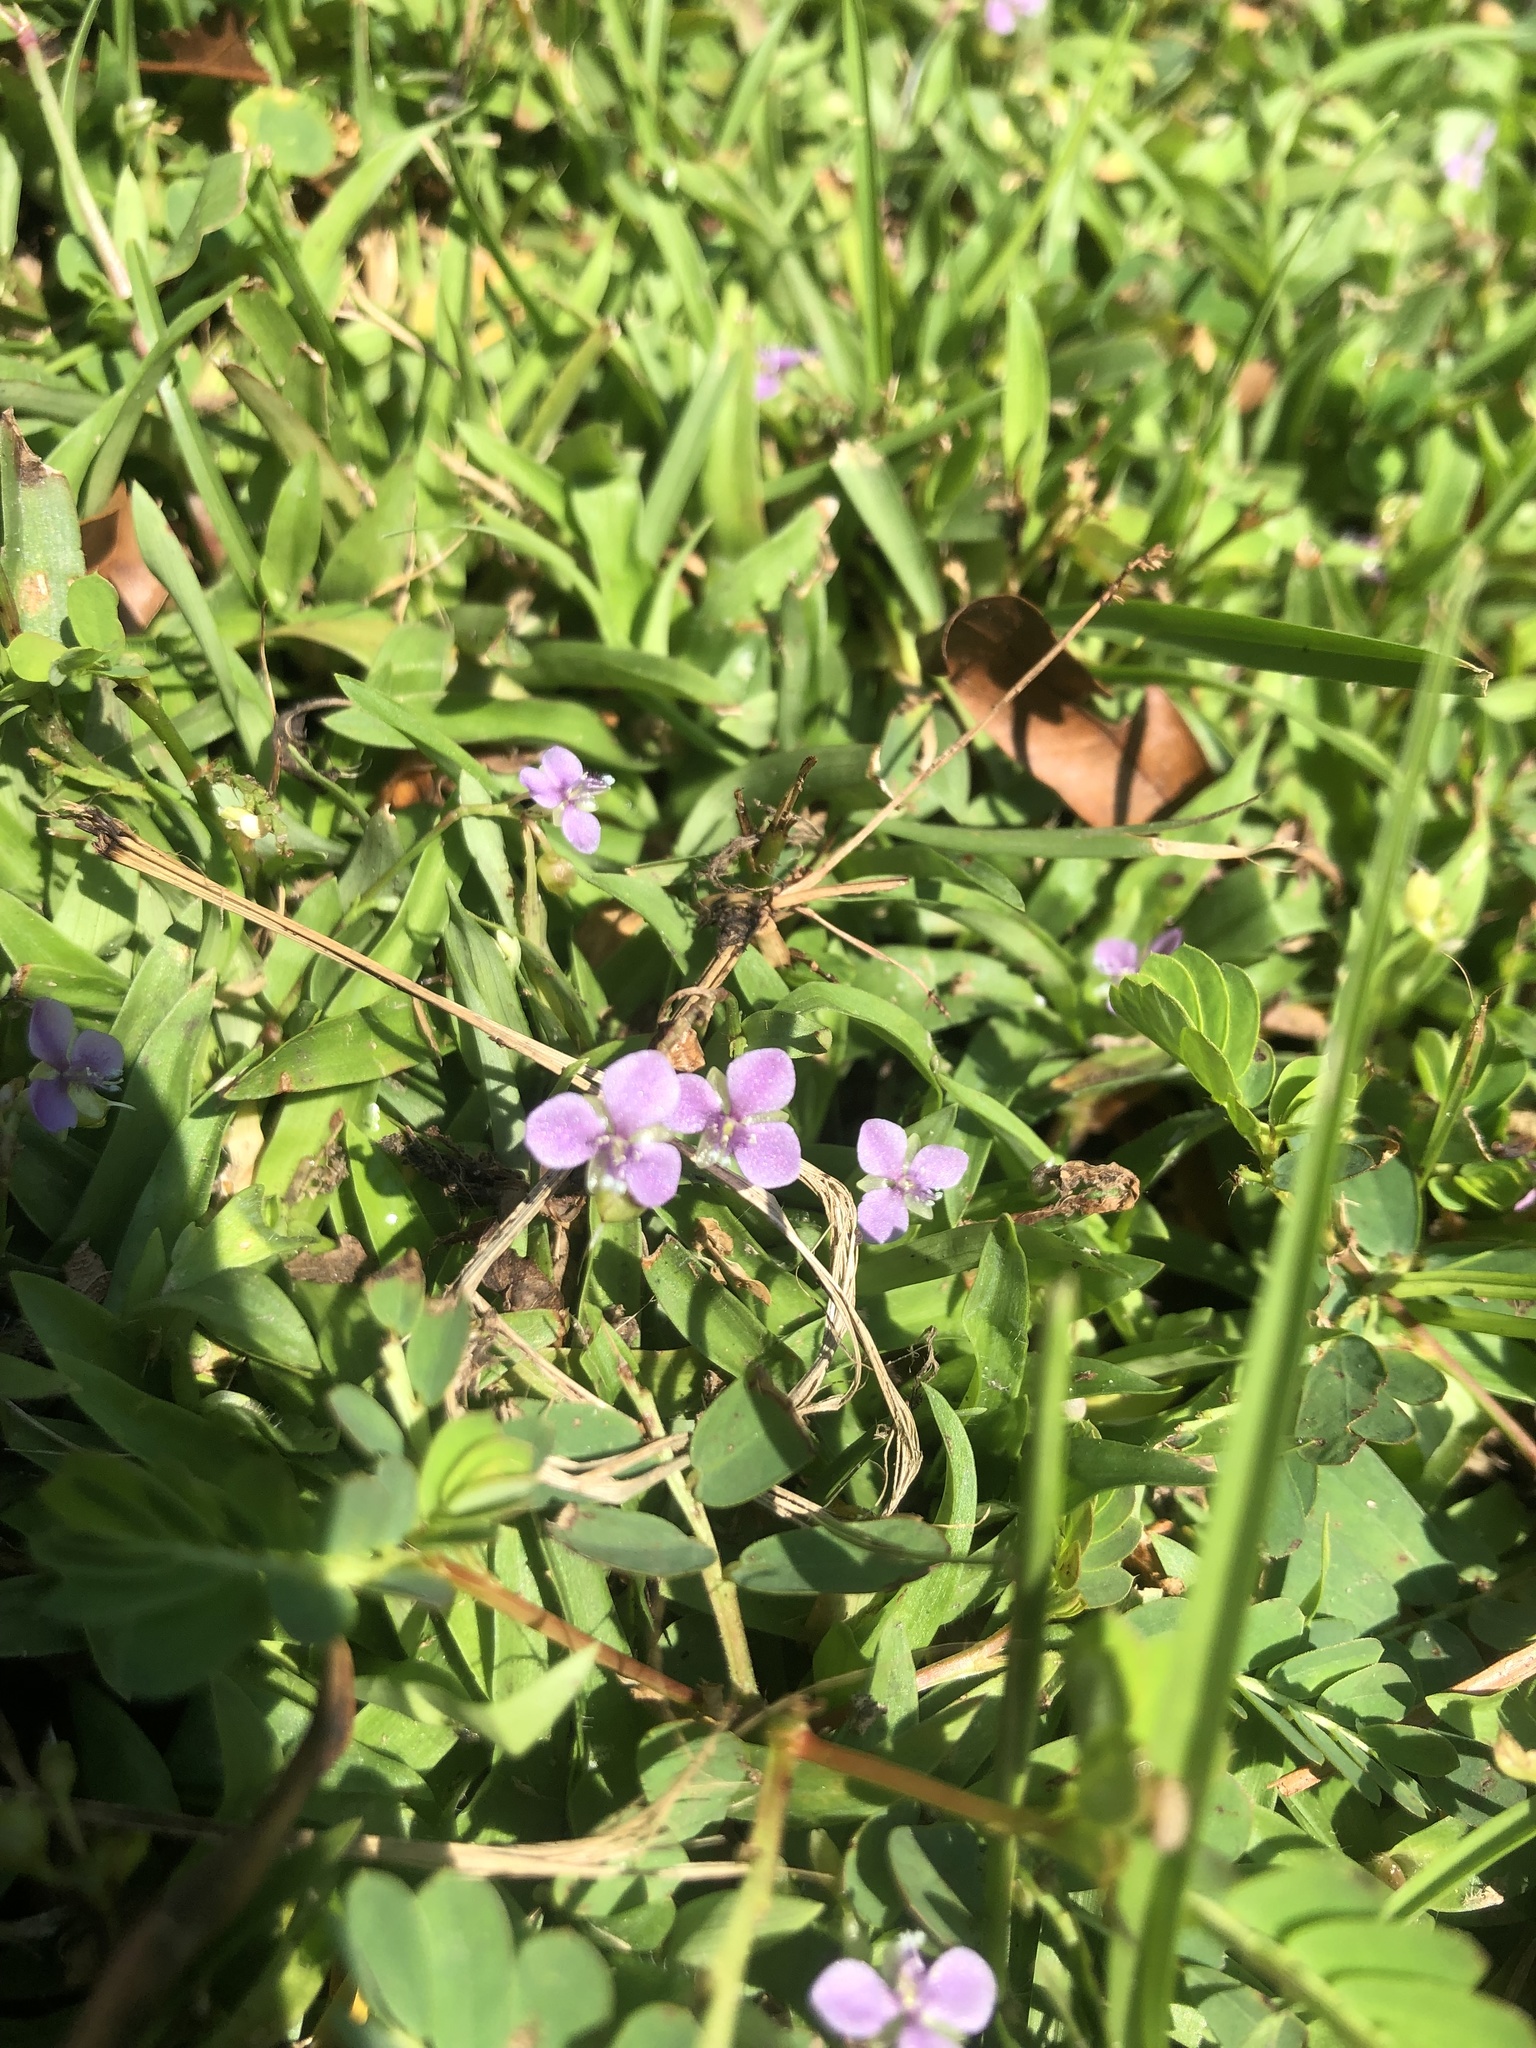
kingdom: Plantae
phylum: Tracheophyta
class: Liliopsida
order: Commelinales
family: Commelinaceae
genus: Murdannia
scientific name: Murdannia nudiflora
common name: Nakedstem dewflower
